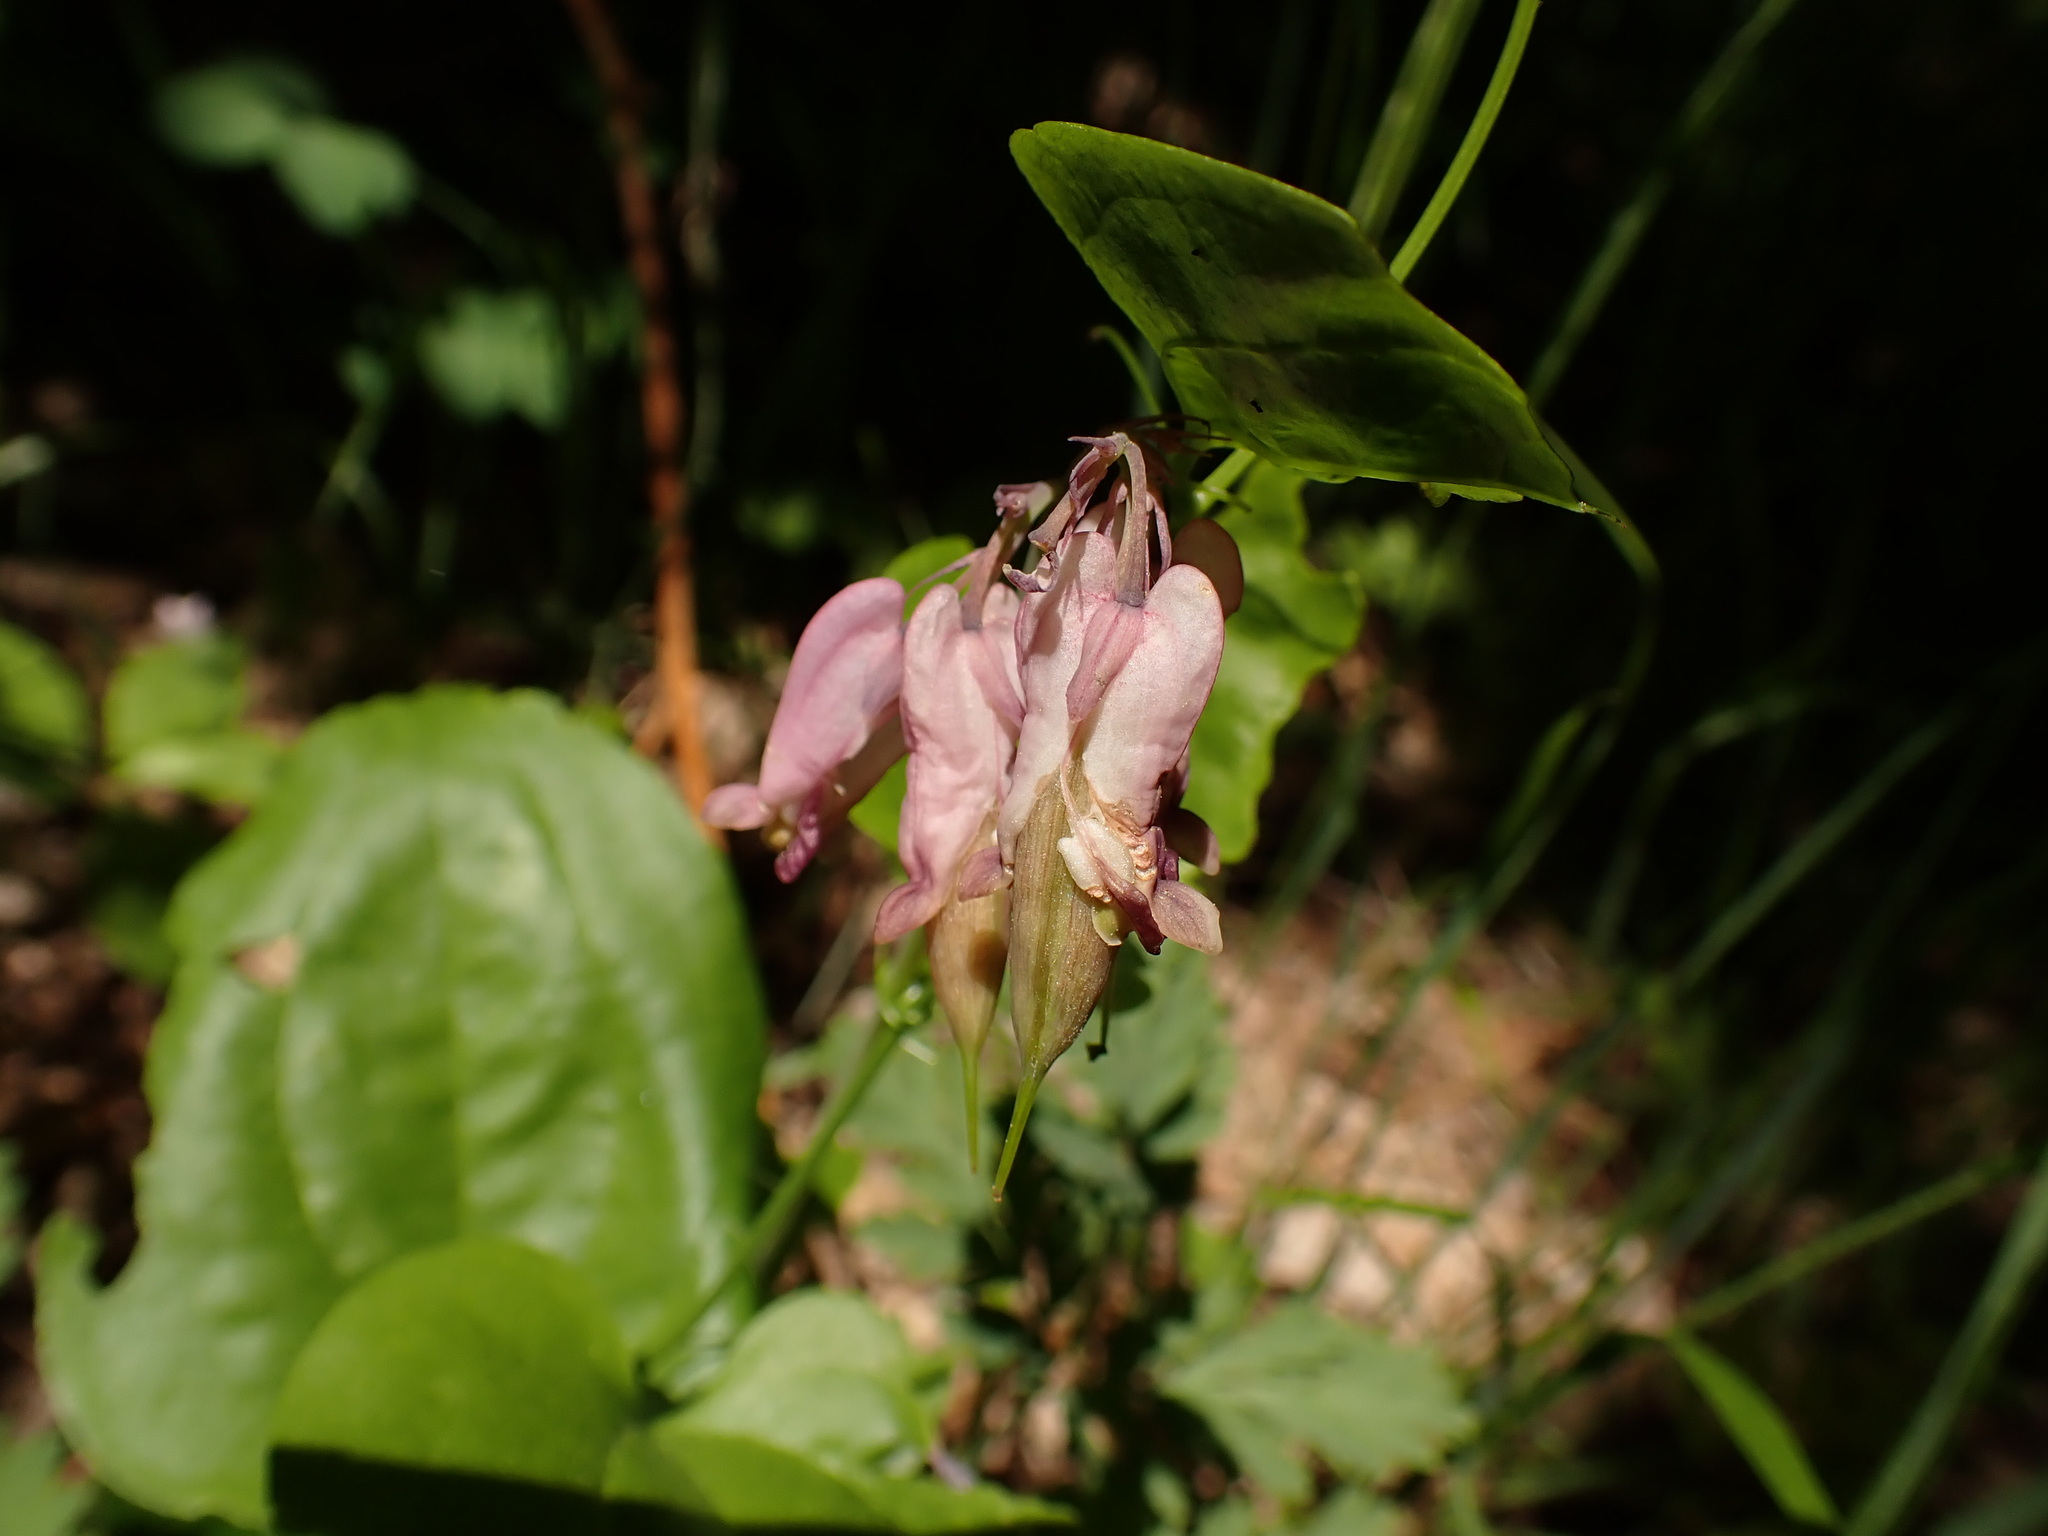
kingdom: Plantae
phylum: Tracheophyta
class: Magnoliopsida
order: Ranunculales
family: Papaveraceae
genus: Dicentra
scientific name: Dicentra formosa
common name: Bleeding-heart
